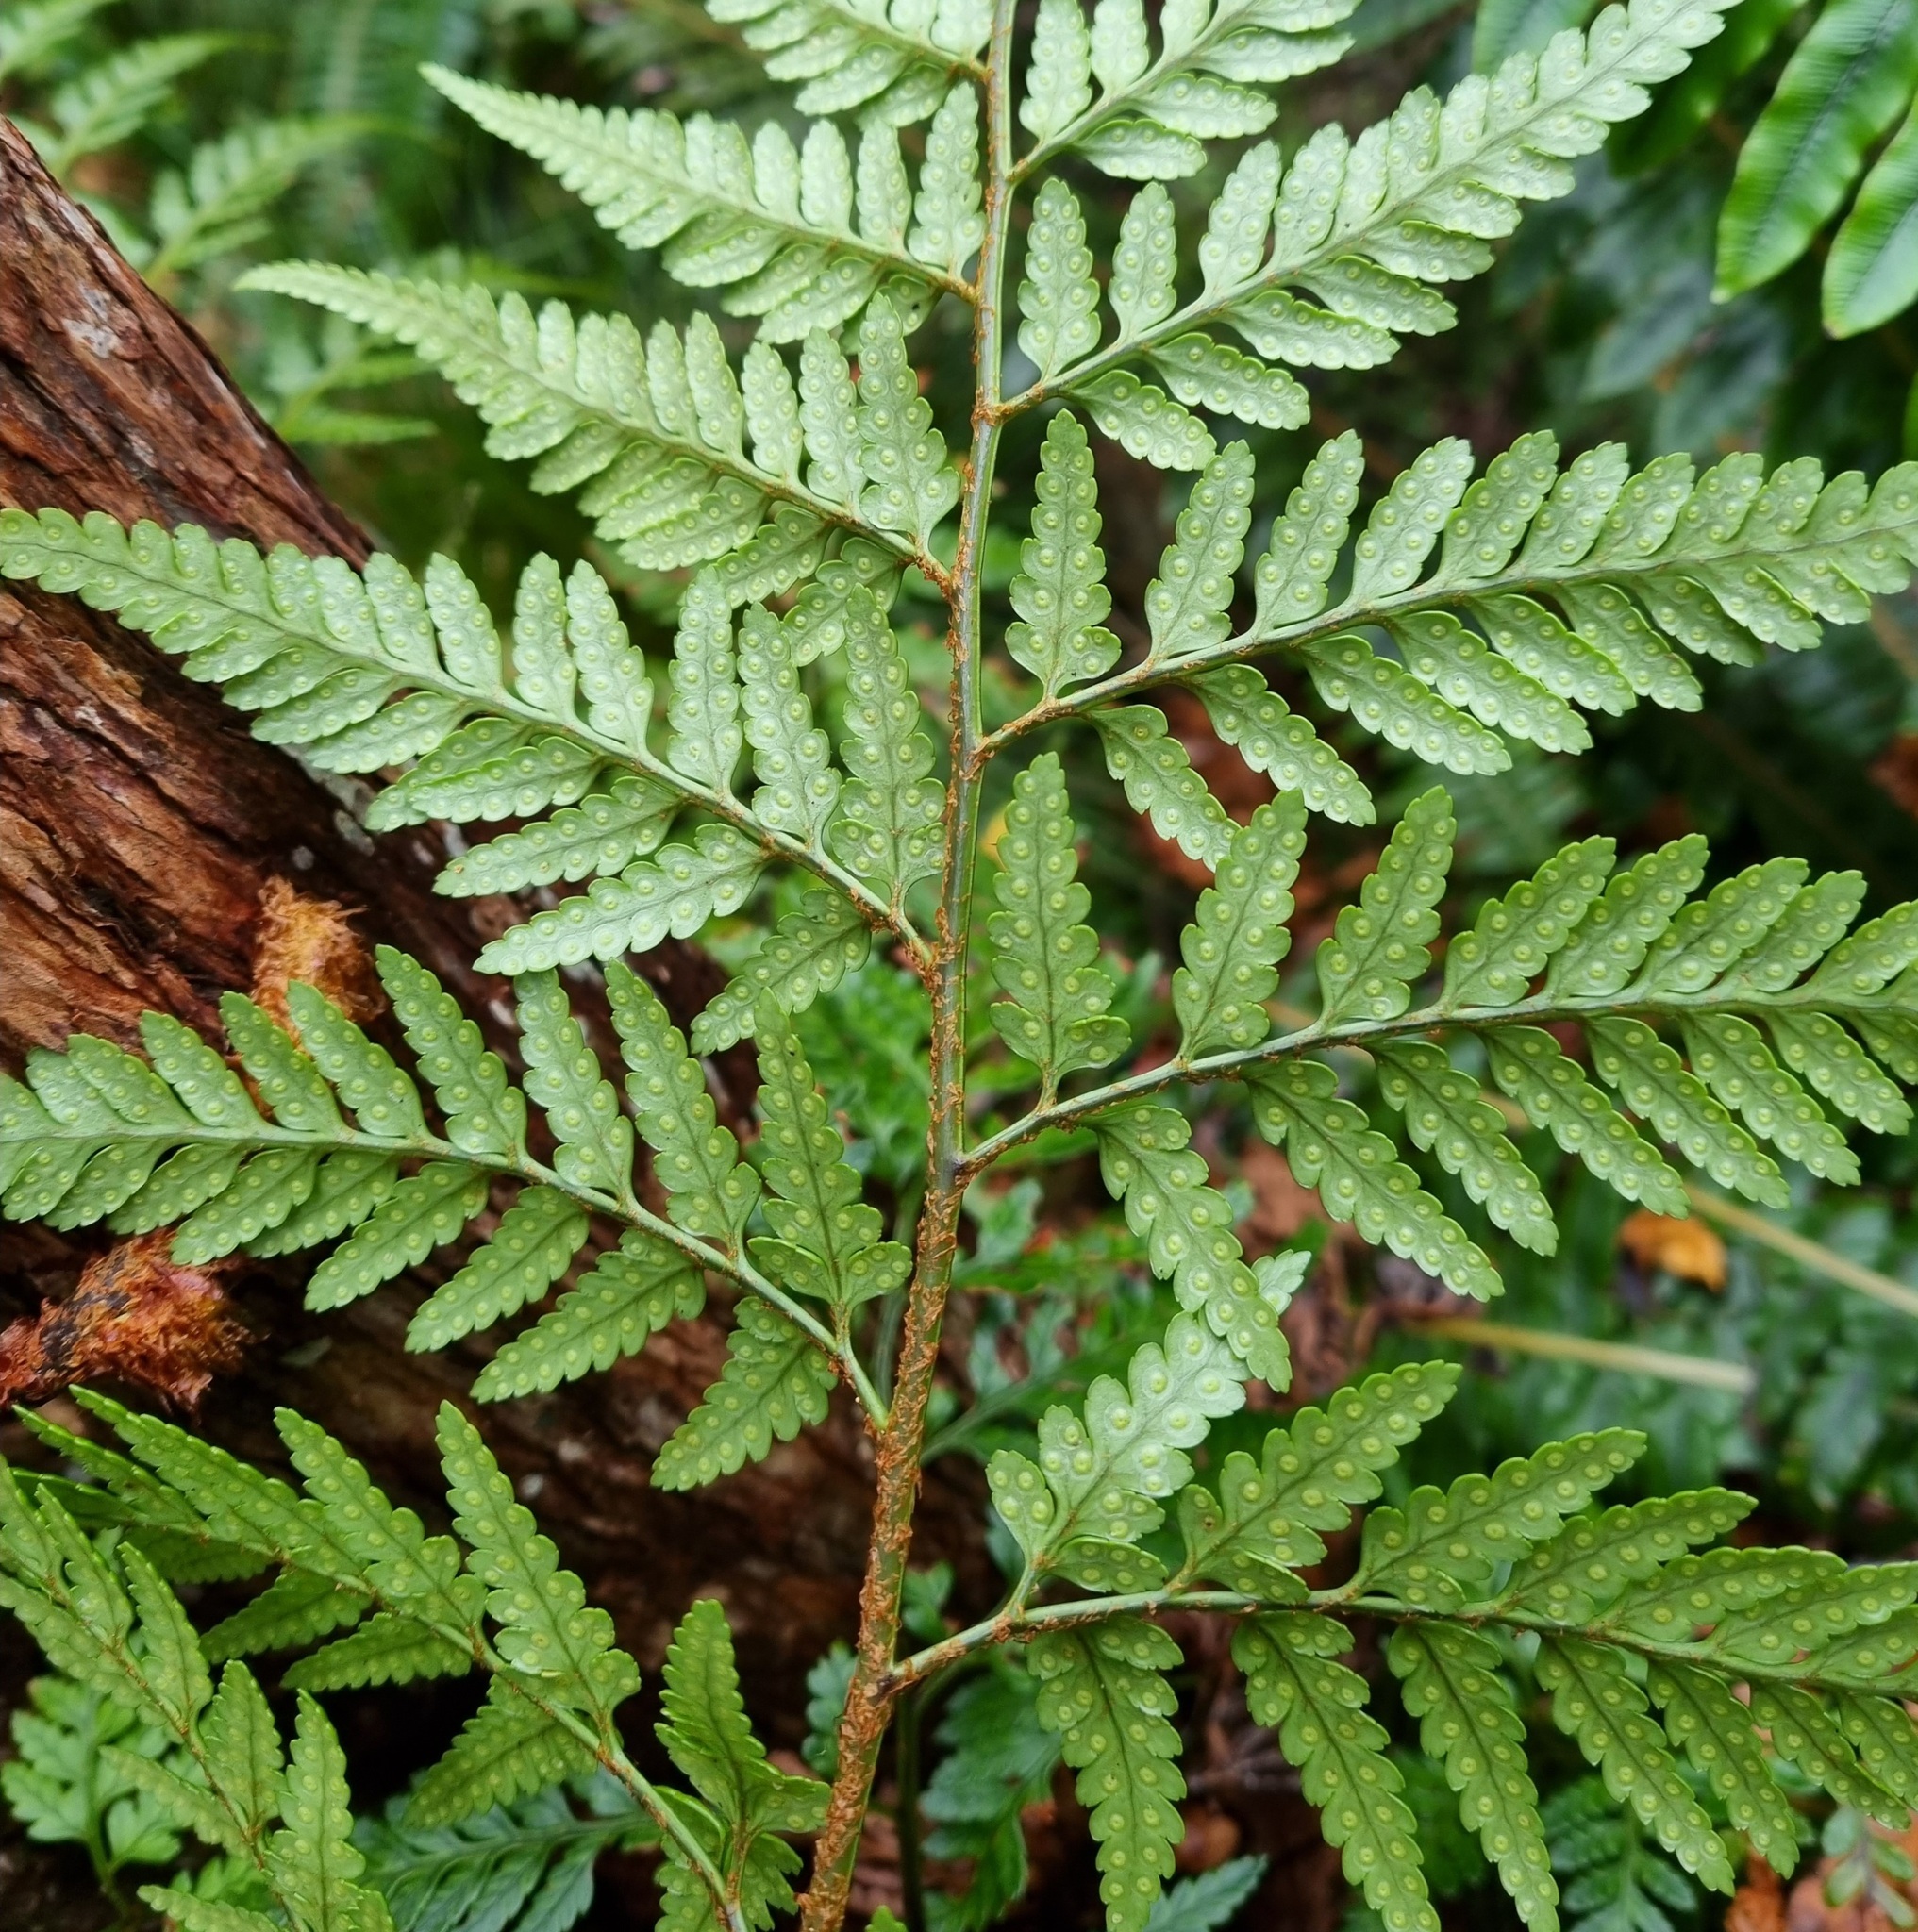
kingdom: Plantae
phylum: Tracheophyta
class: Polypodiopsida
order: Polypodiales
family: Dryopteridaceae
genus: Rumohra
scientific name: Rumohra adiantiformis
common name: Leather fern
